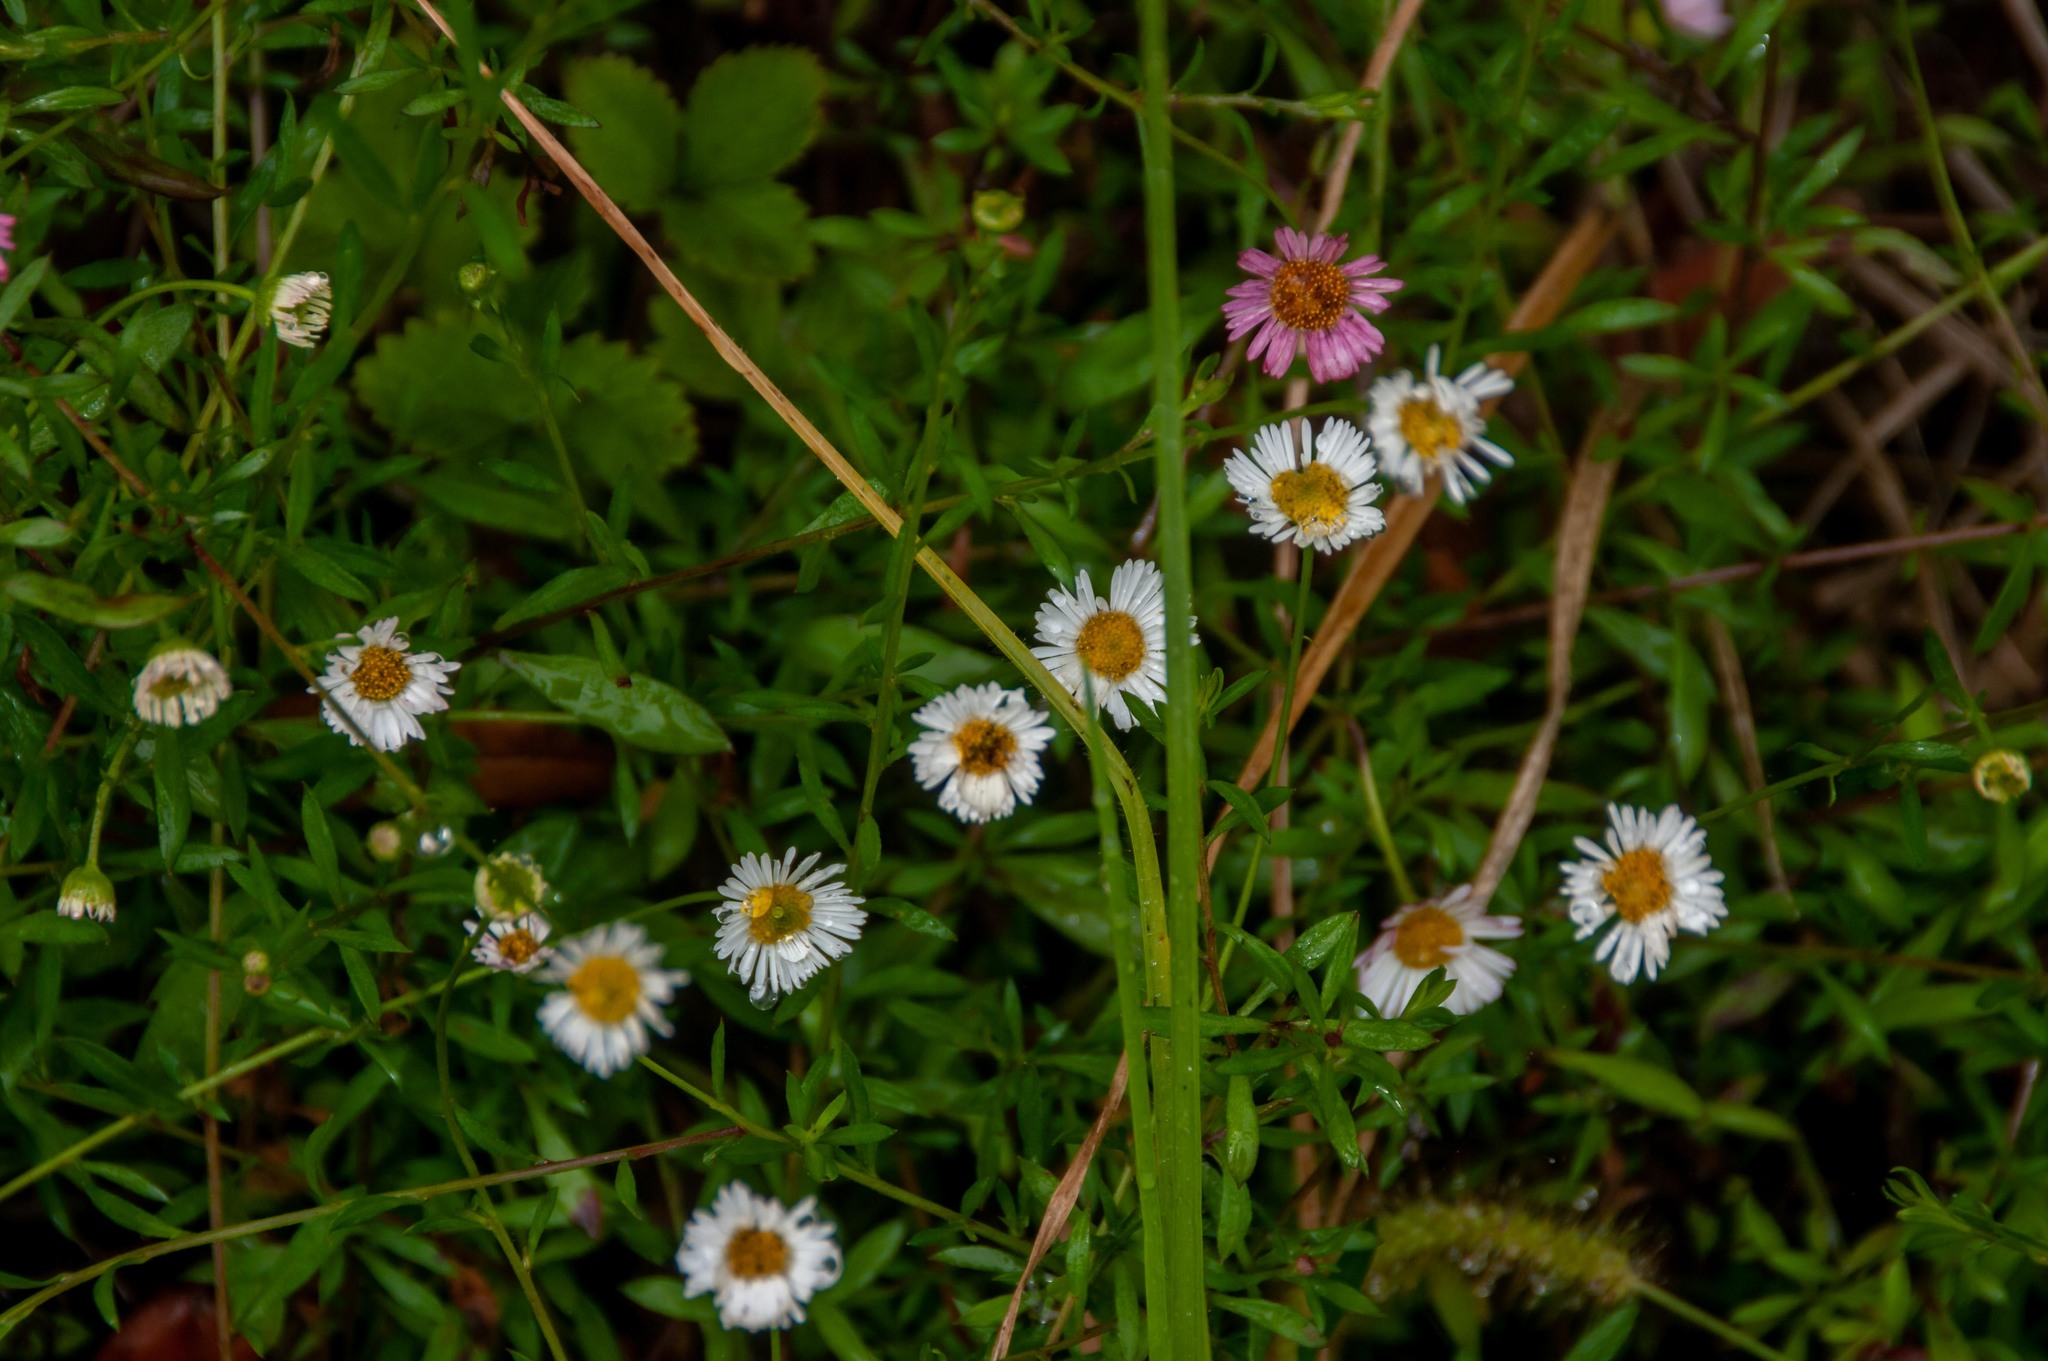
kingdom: Plantae
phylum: Tracheophyta
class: Magnoliopsida
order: Asterales
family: Asteraceae
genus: Erigeron
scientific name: Erigeron karvinskianus
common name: Mexican fleabane
